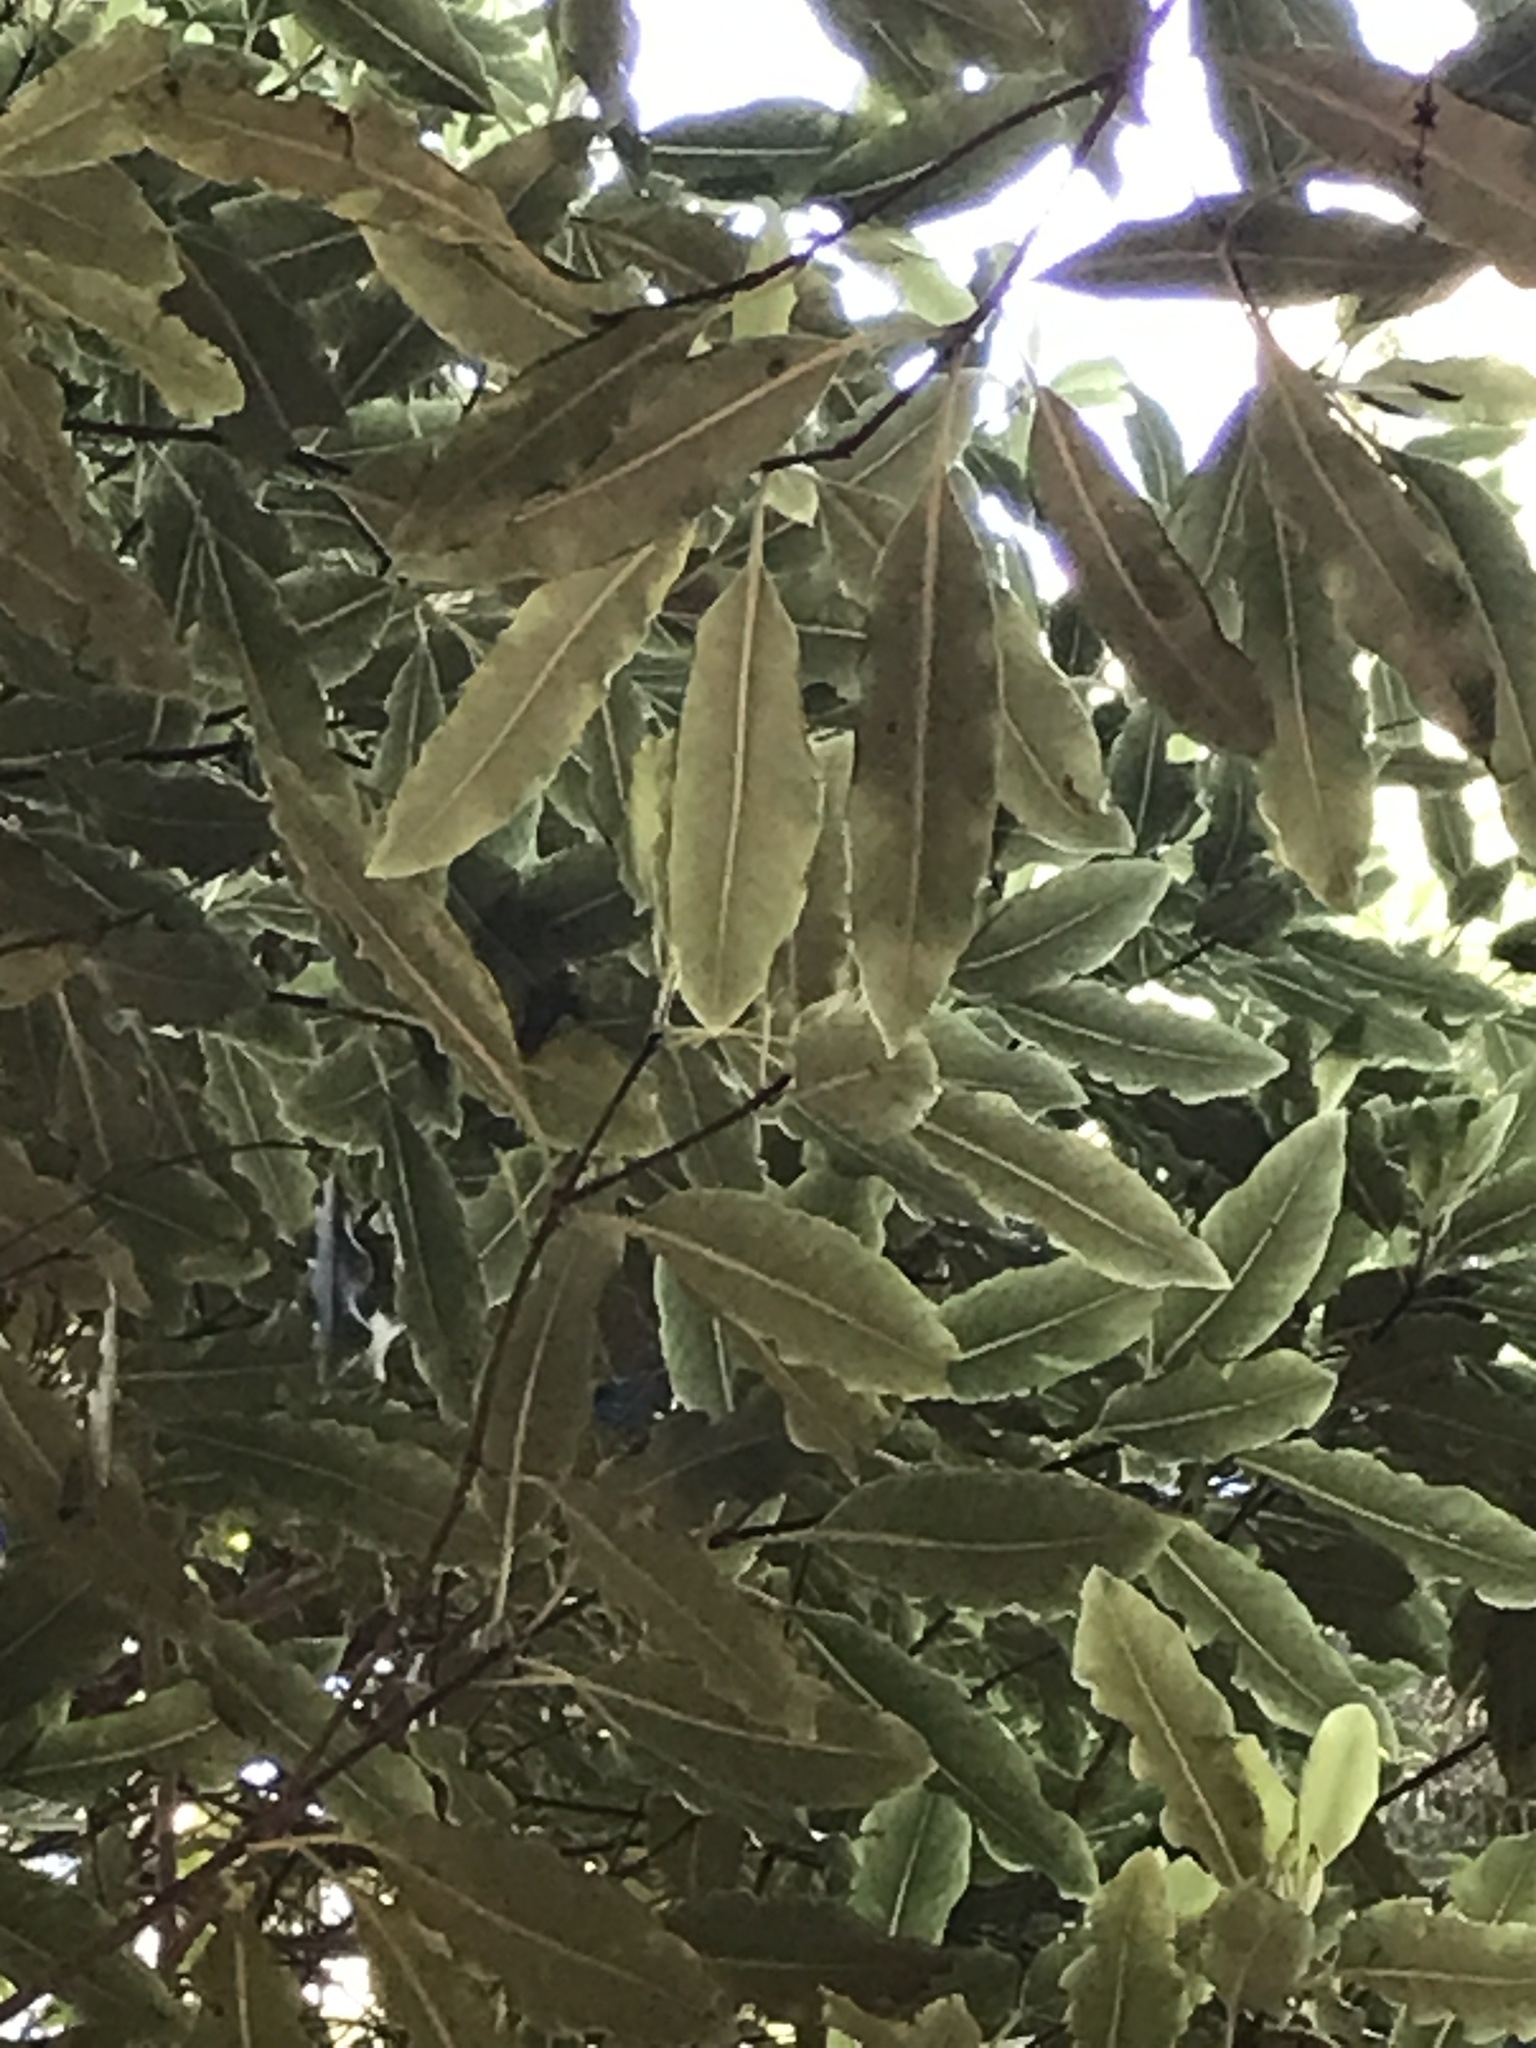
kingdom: Plantae
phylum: Tracheophyta
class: Magnoliopsida
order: Apiales
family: Pittosporaceae
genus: Pittosporum
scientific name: Pittosporum eugenioides
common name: Lemonwood
